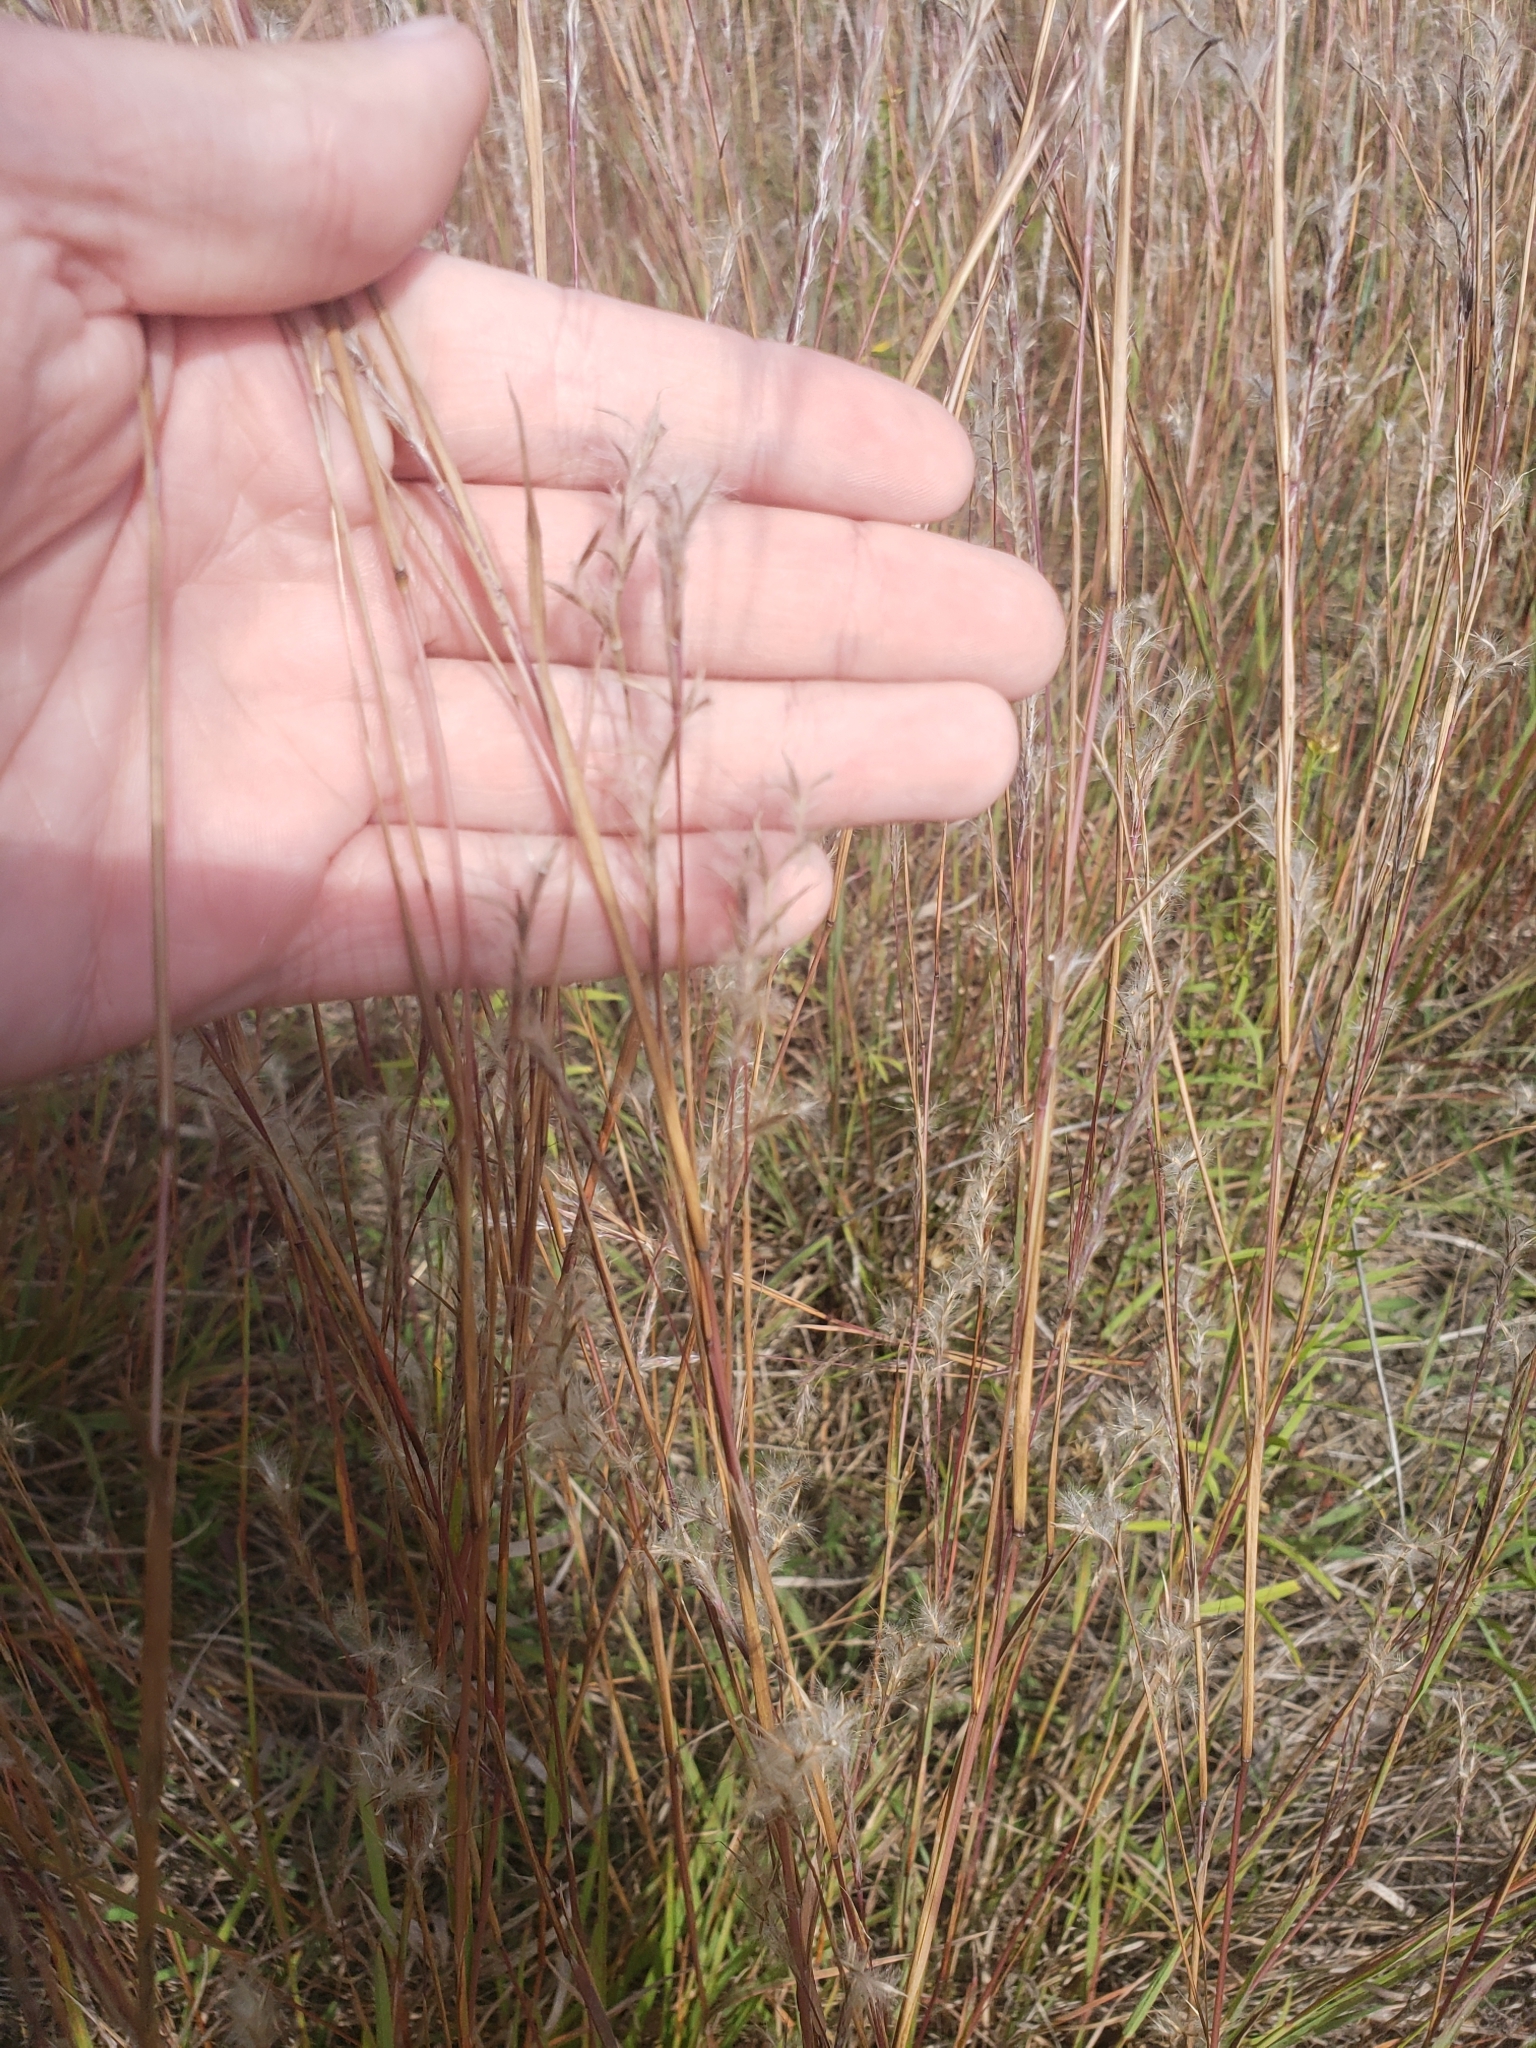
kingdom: Plantae
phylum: Tracheophyta
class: Liliopsida
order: Poales
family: Poaceae
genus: Schizachyrium
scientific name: Schizachyrium scoparium
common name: Little bluestem
